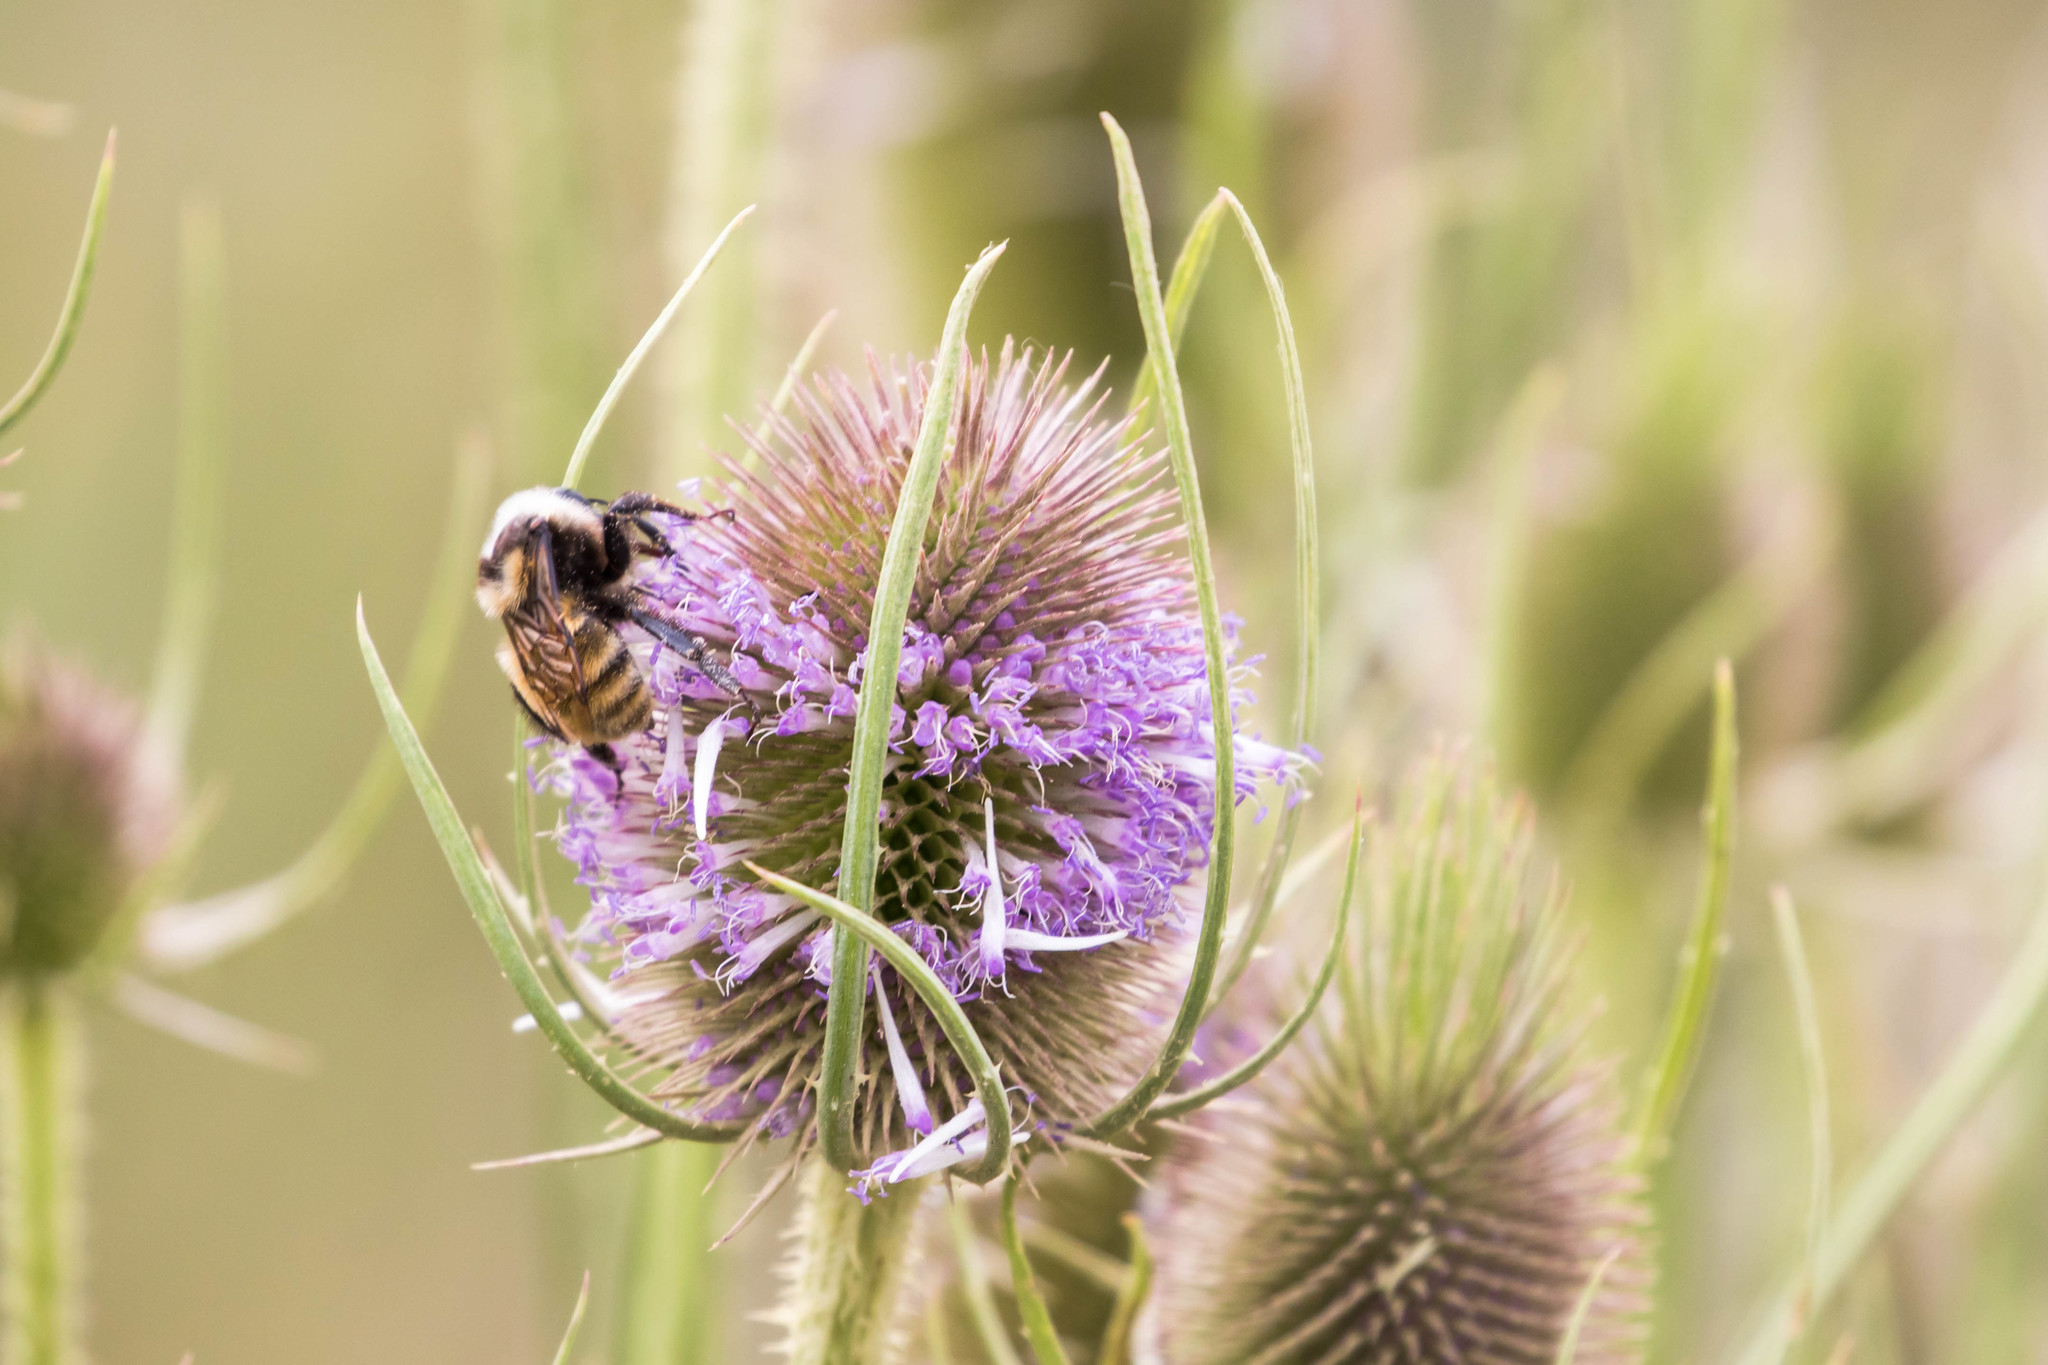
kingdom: Animalia
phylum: Arthropoda
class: Insecta
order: Hymenoptera
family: Apidae
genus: Bombus
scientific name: Bombus appositus
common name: White-shouldered bumble bee
